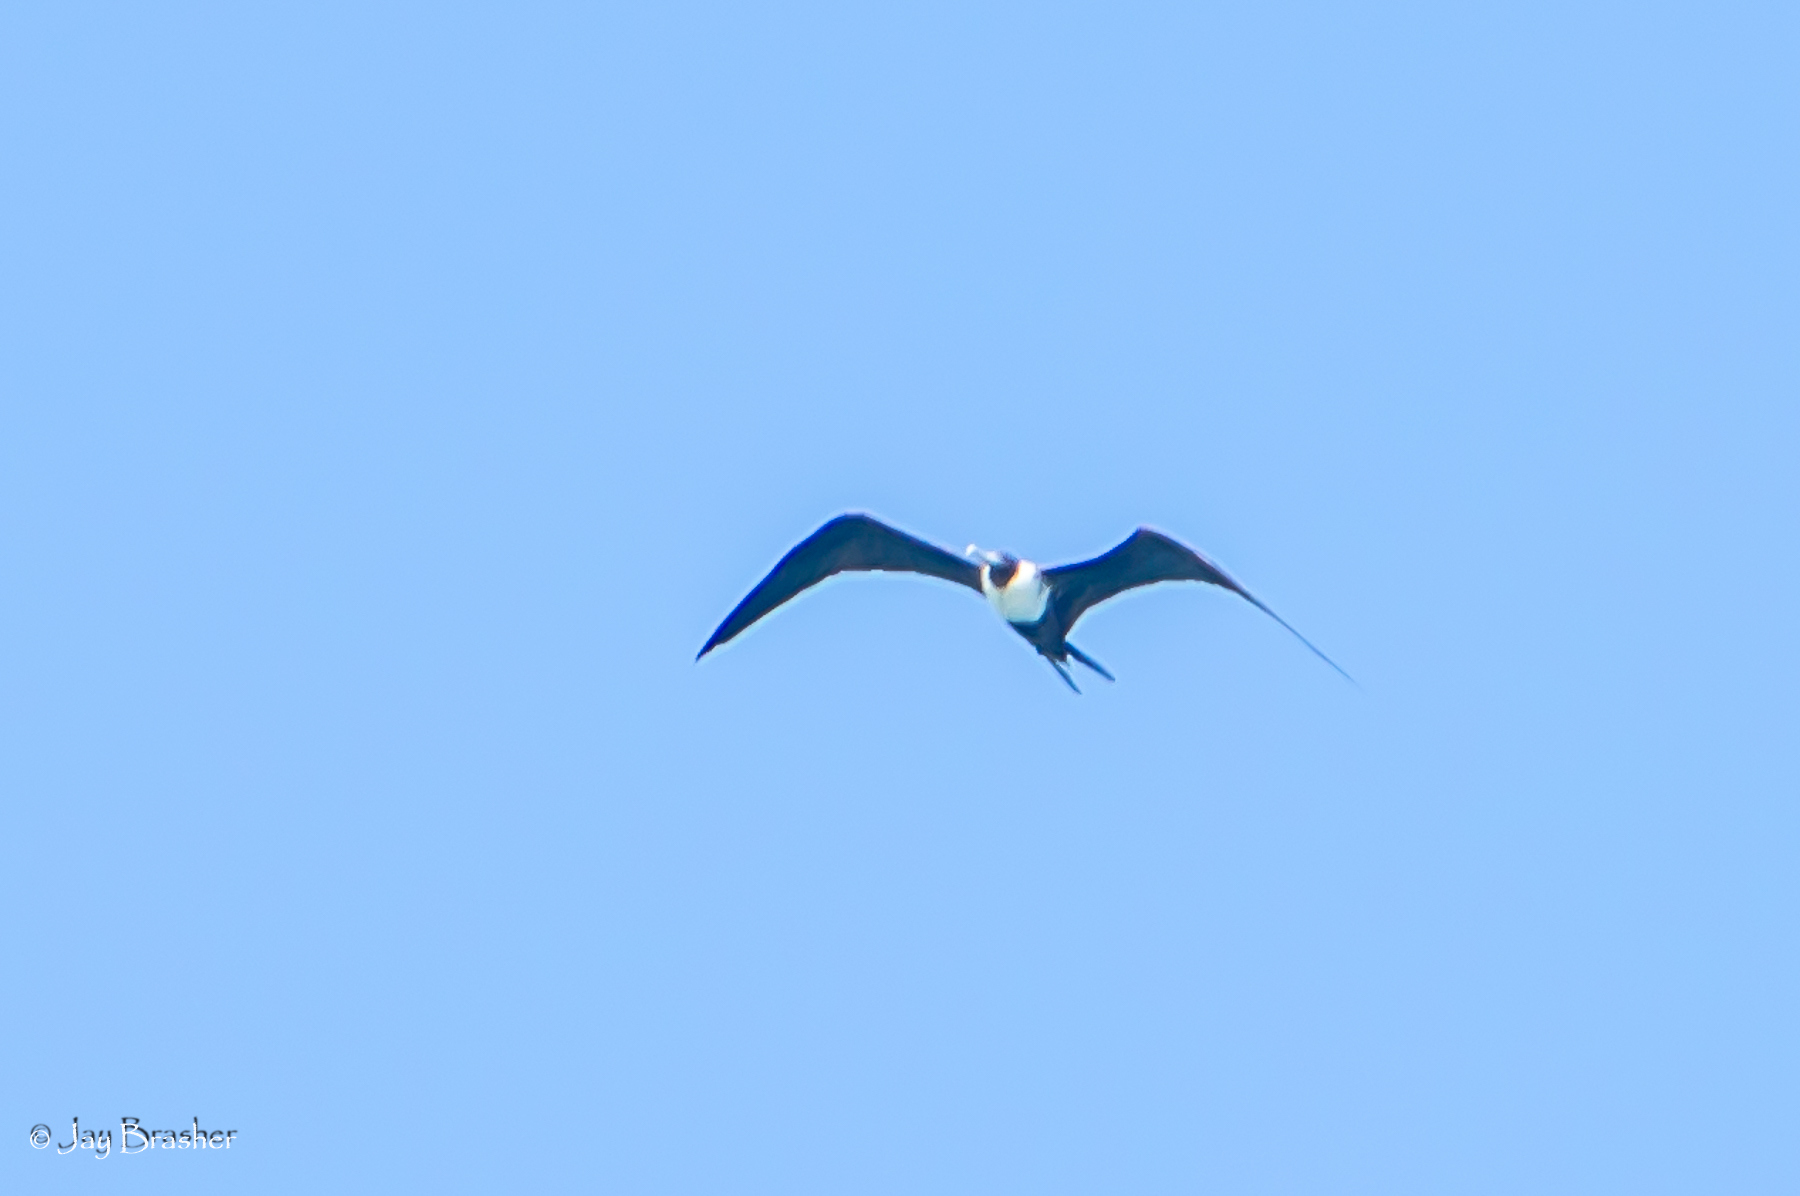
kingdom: Animalia
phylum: Chordata
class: Aves
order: Suliformes
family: Fregatidae
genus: Fregata
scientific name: Fregata magnificens
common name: Magnificent frigatebird
